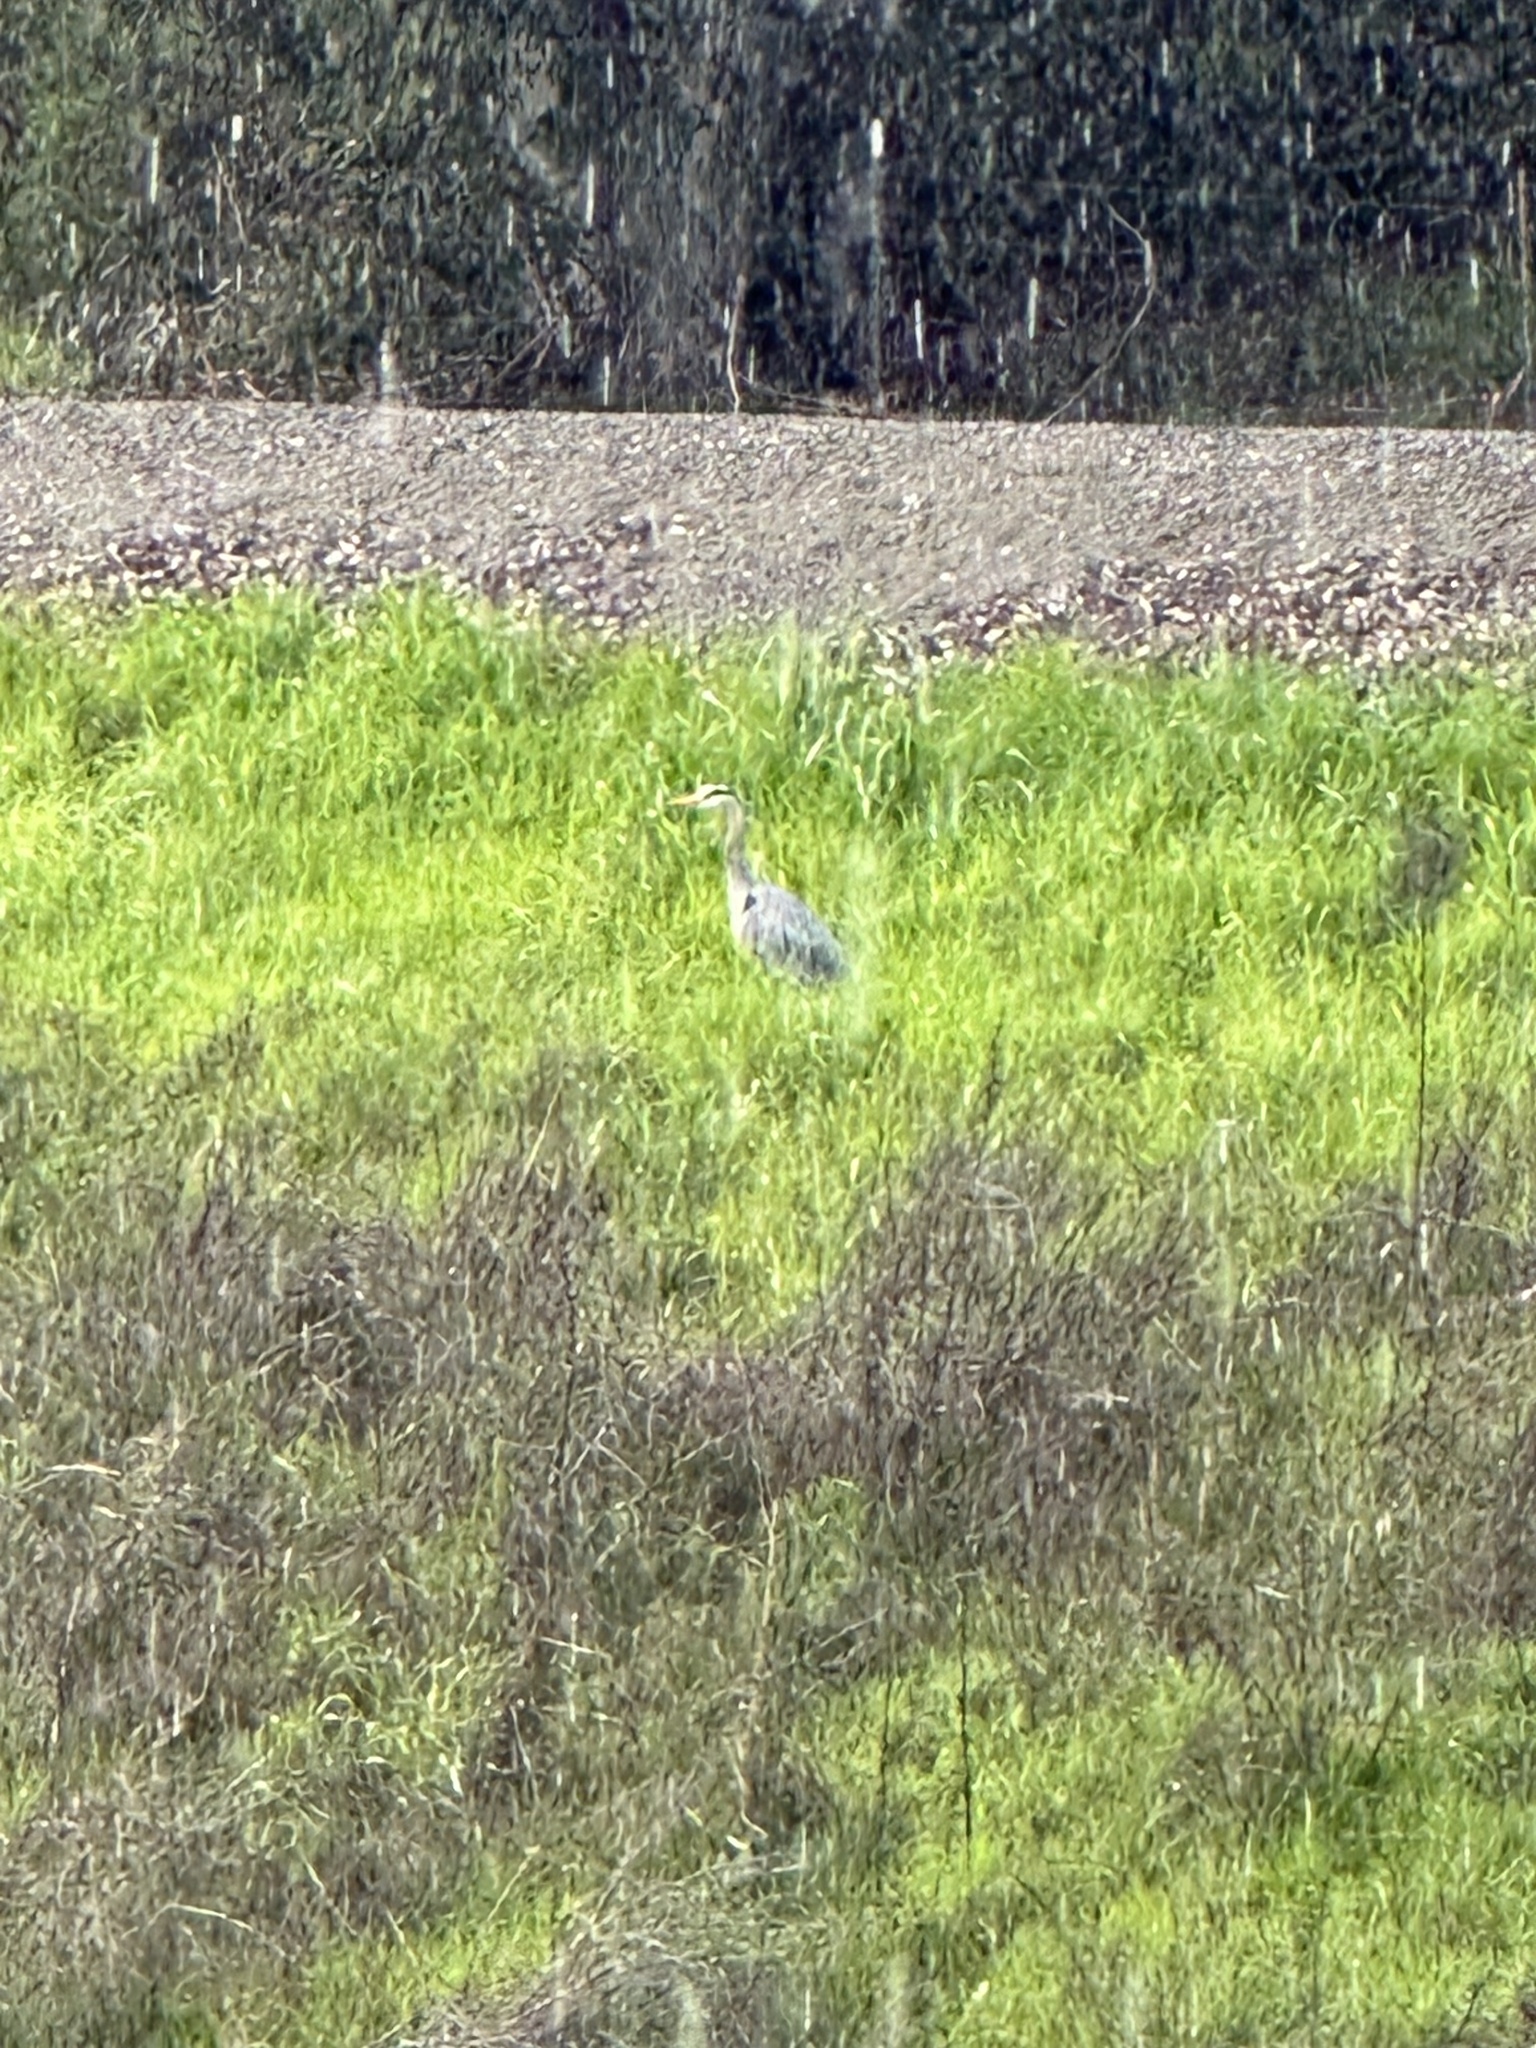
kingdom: Animalia
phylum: Chordata
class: Aves
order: Pelecaniformes
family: Ardeidae
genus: Ardea
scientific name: Ardea herodias
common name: Great blue heron
